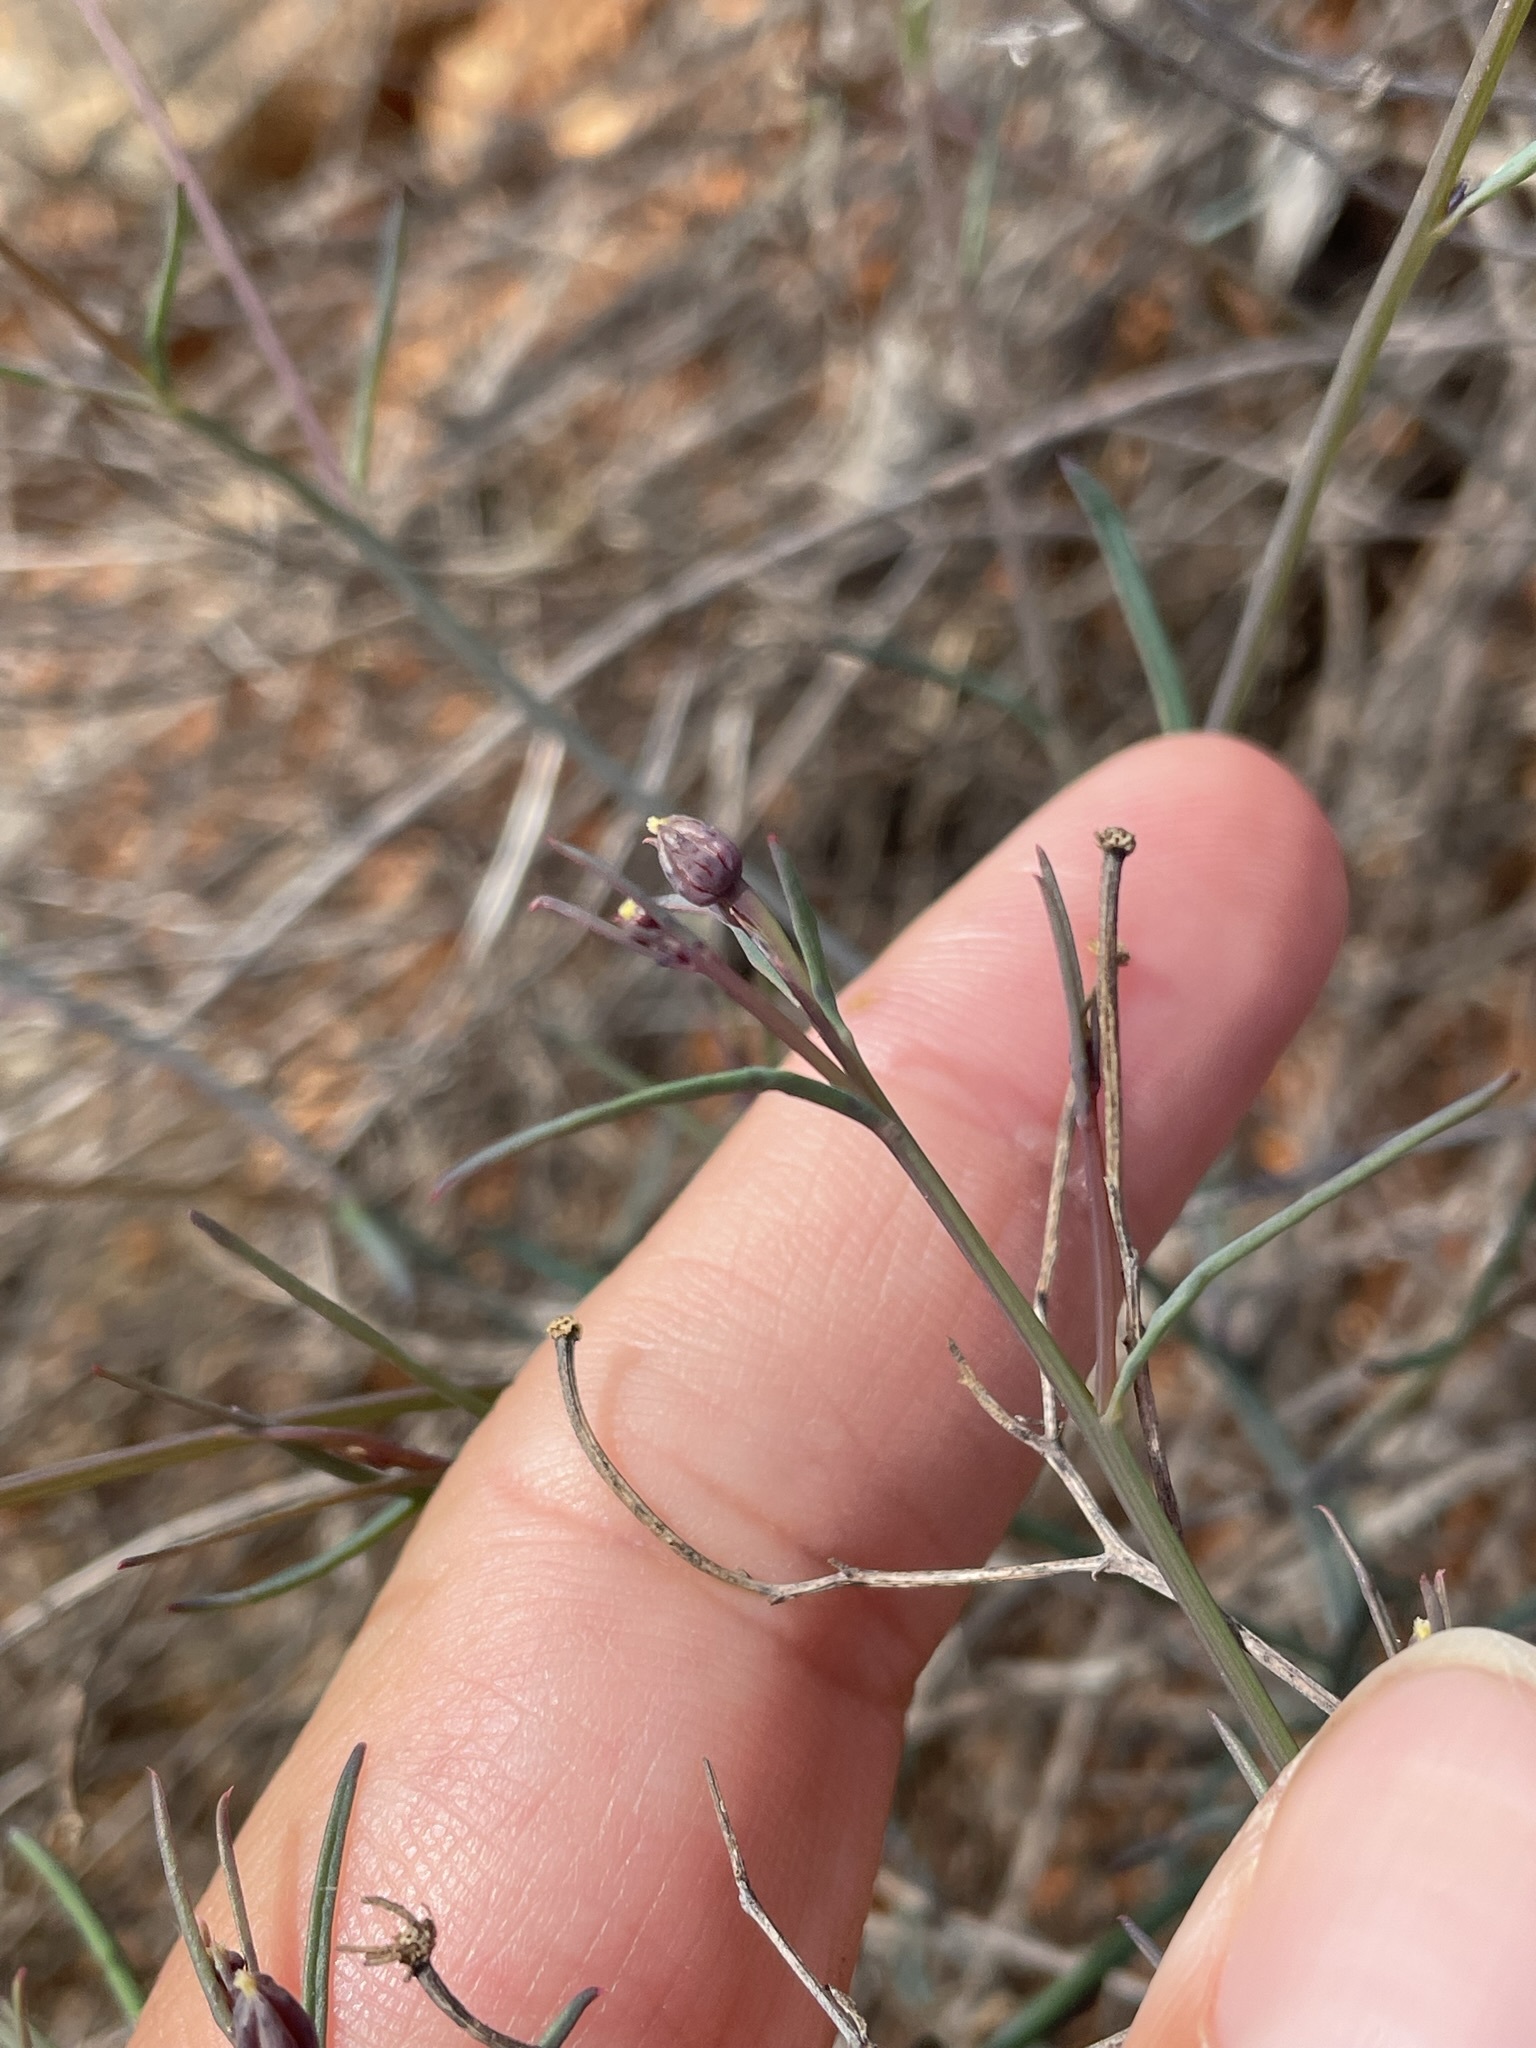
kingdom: Plantae
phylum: Tracheophyta
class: Magnoliopsida
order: Asterales
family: Asteraceae
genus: Porophyllum
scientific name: Porophyllum gracile
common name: Odora
